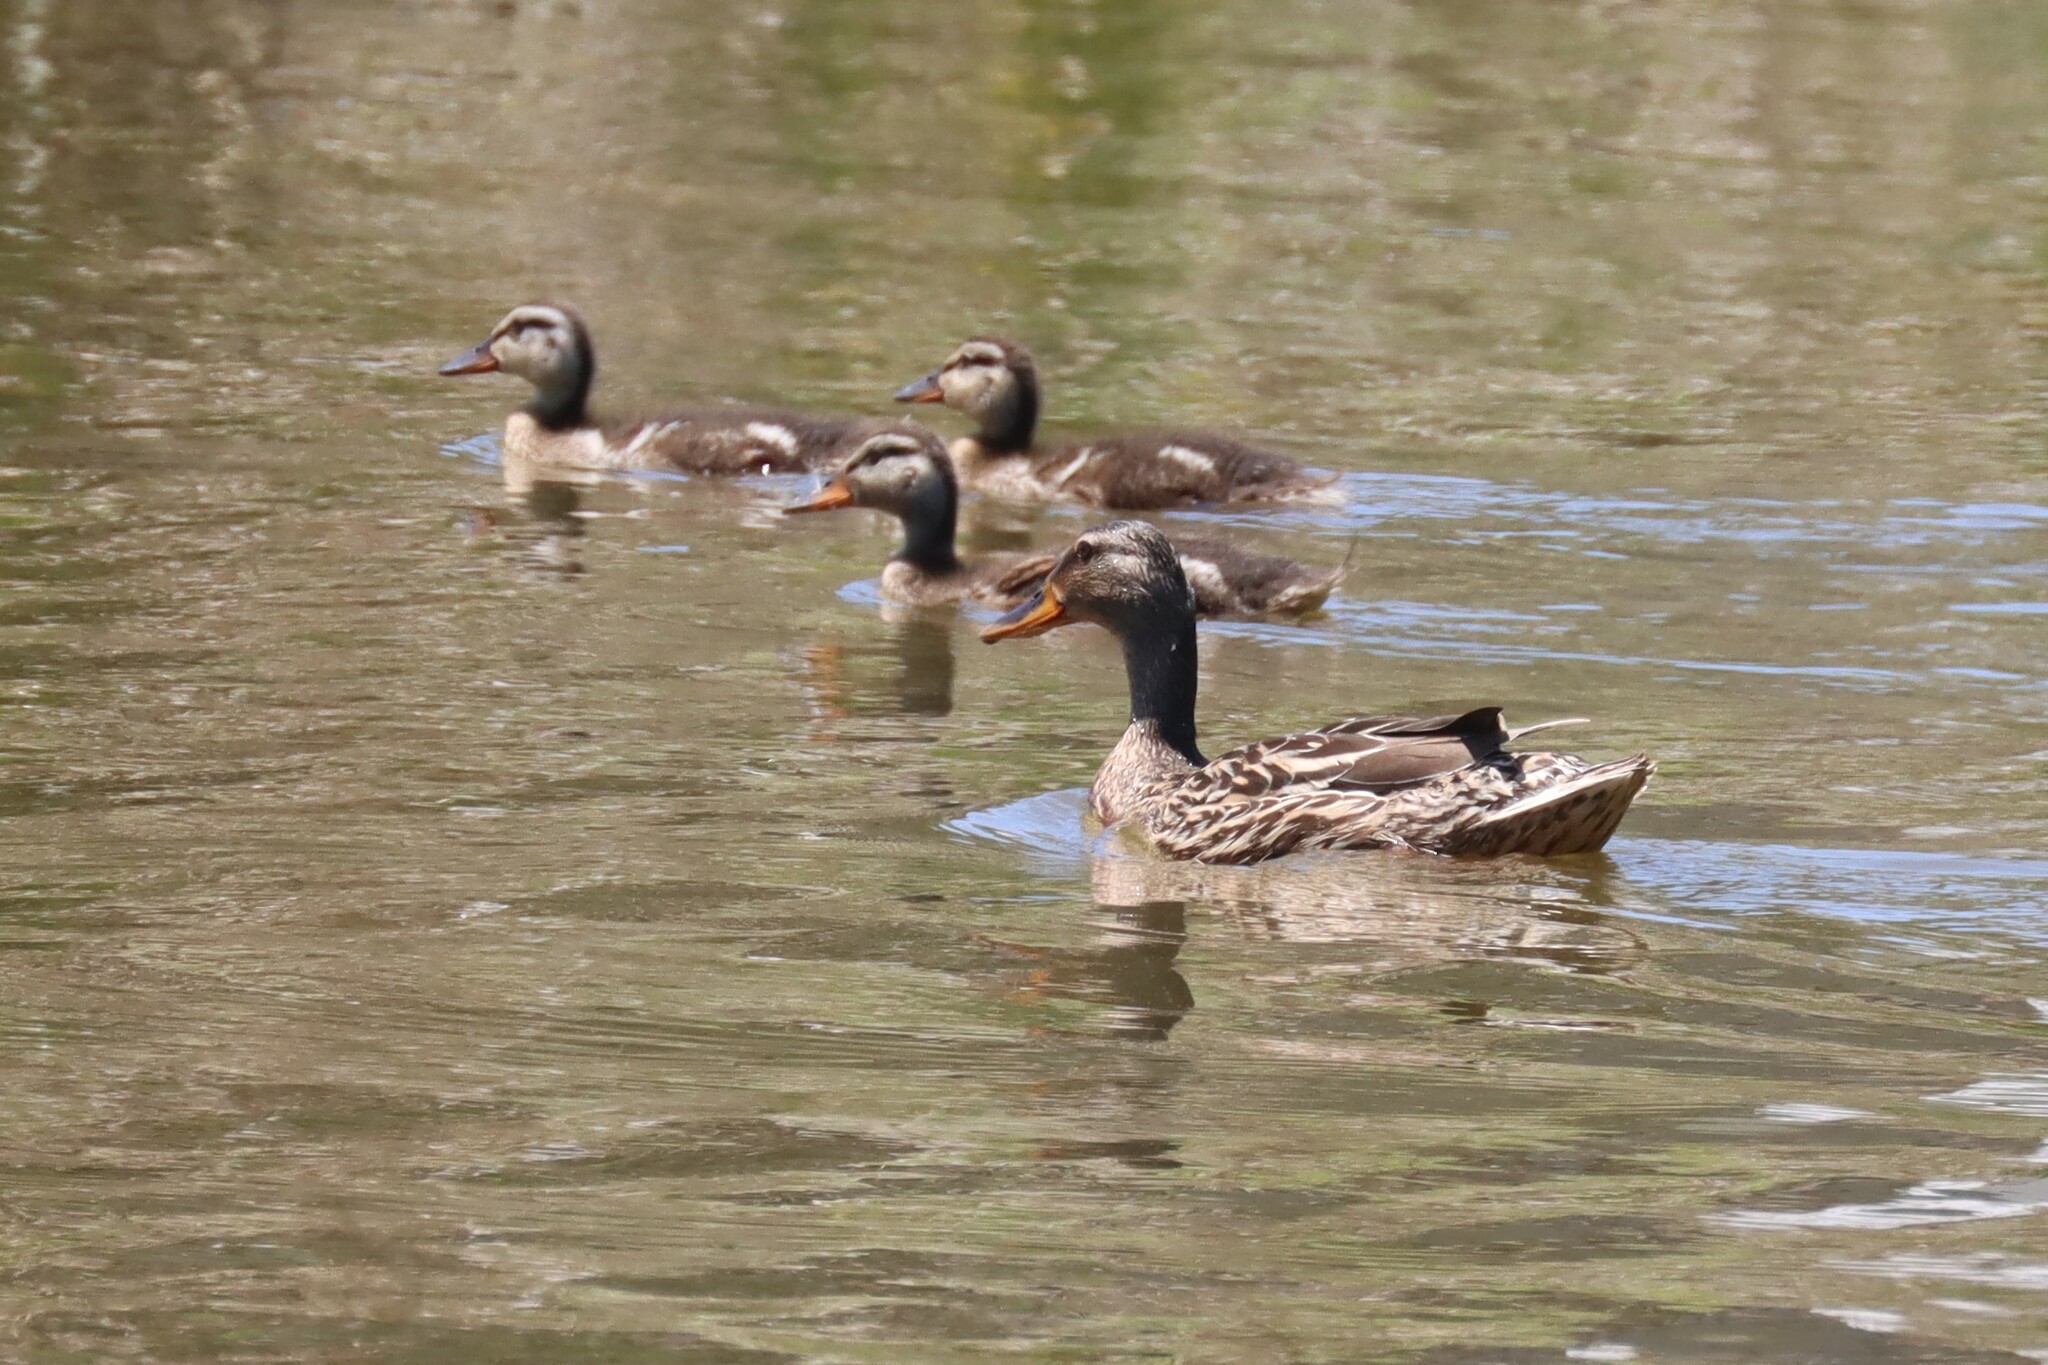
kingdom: Animalia
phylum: Chordata
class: Aves
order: Anseriformes
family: Anatidae
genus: Anas
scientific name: Anas platyrhynchos
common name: Mallard
